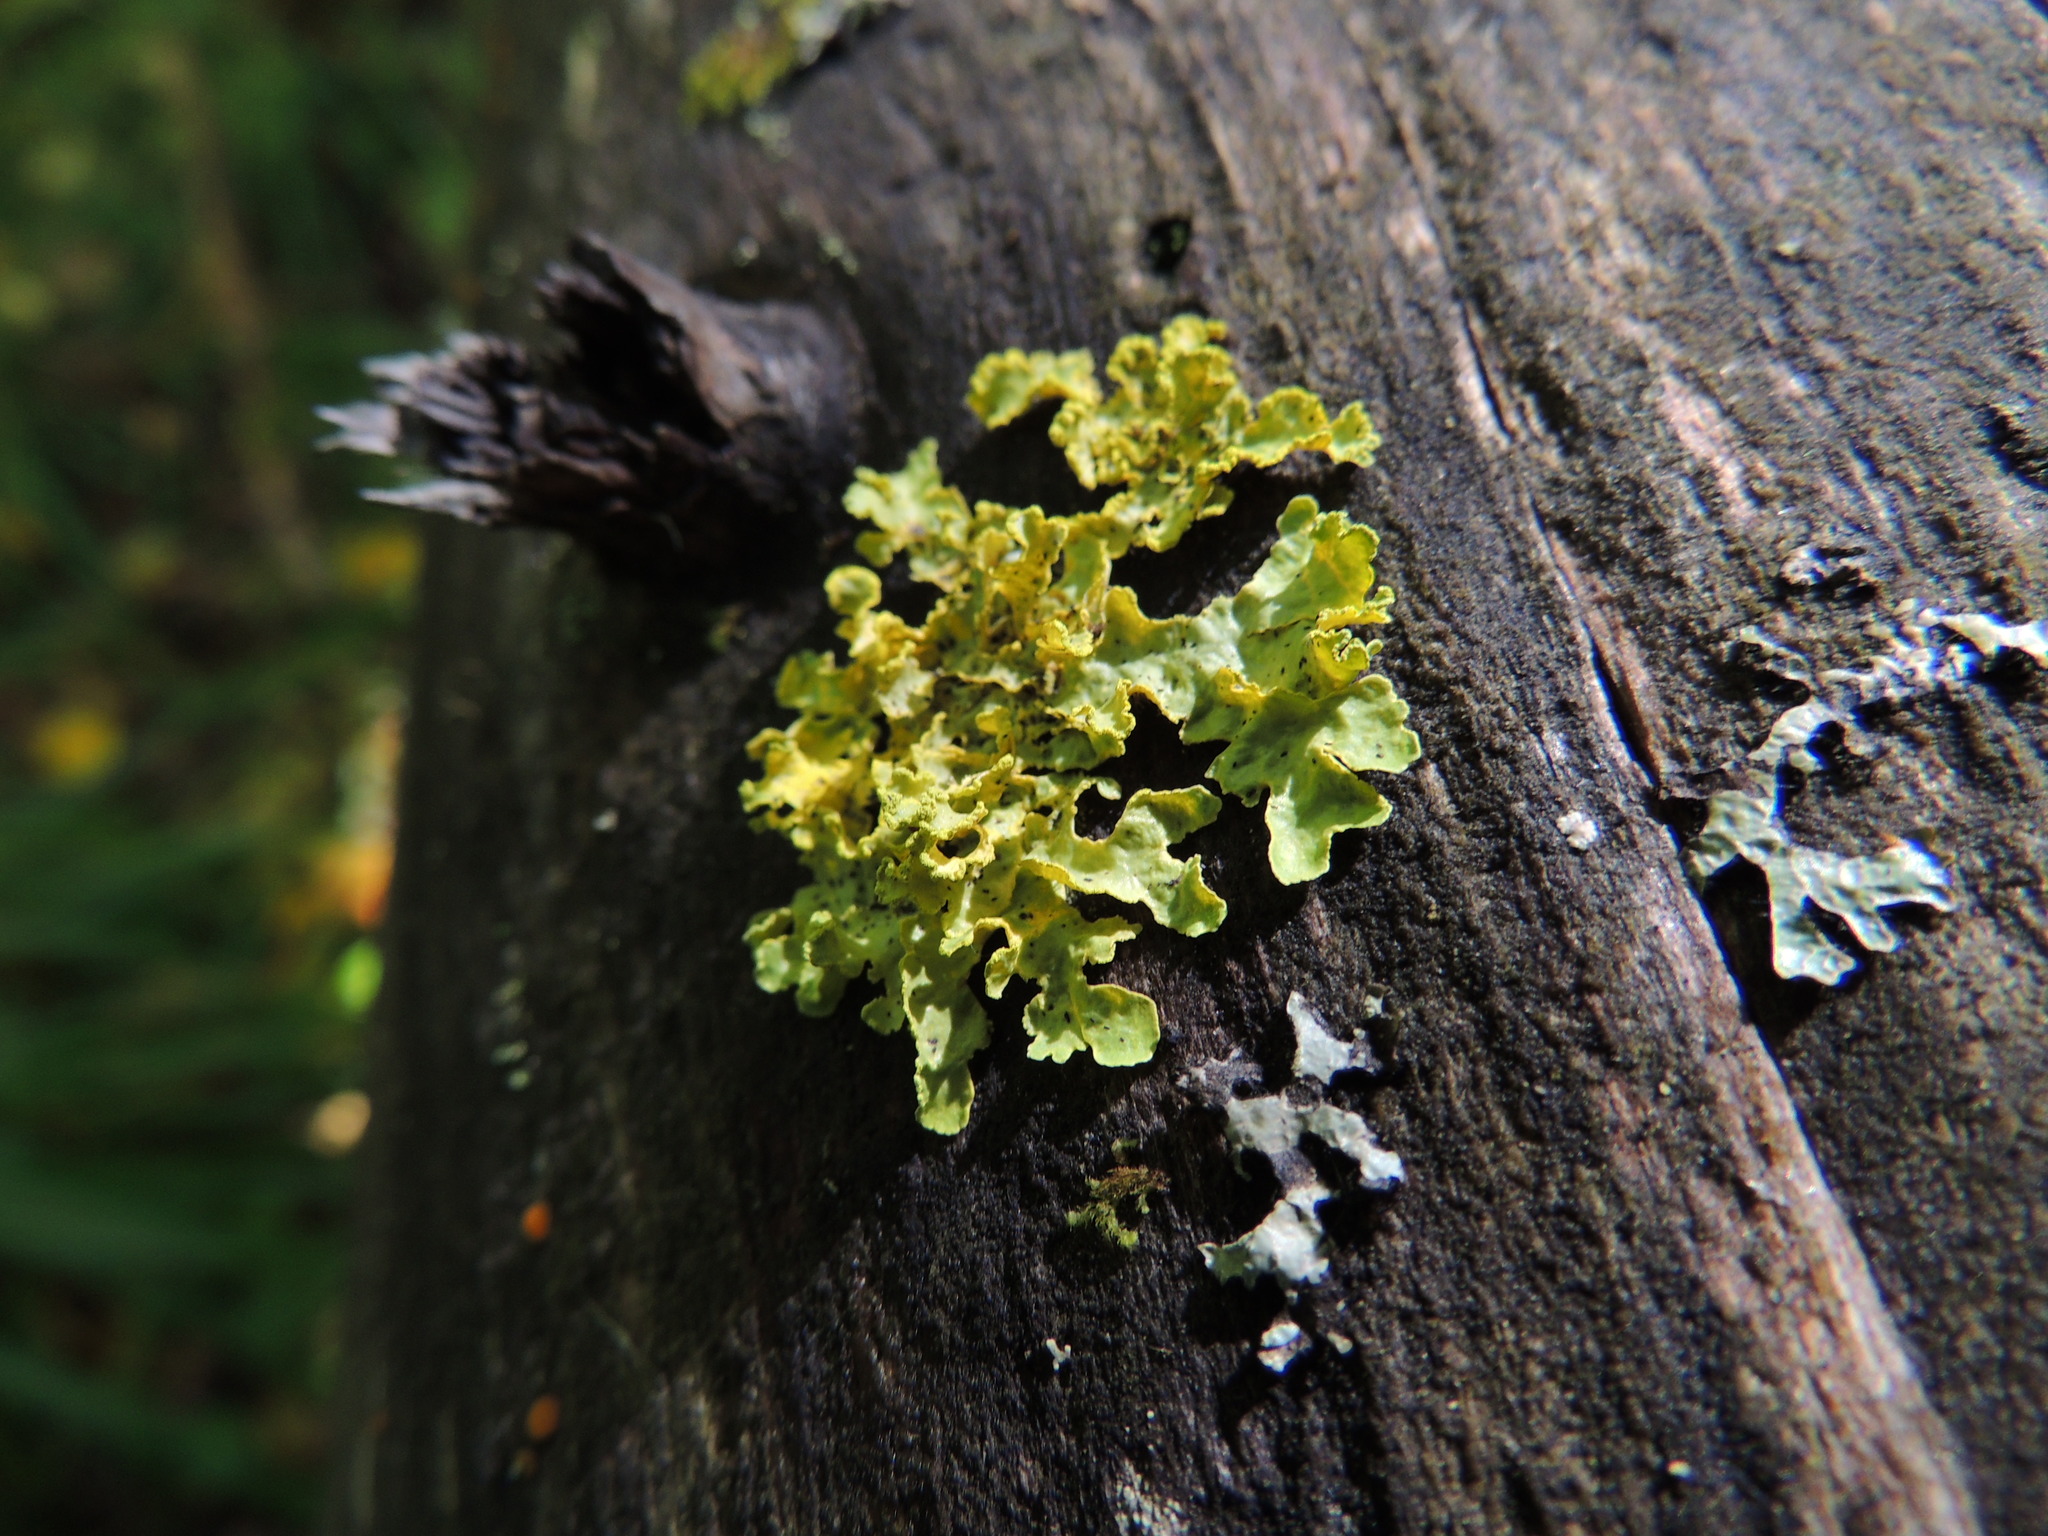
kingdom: Fungi
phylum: Ascomycota
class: Lecanoromycetes
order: Lecanorales
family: Parmeliaceae
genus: Vulpicida
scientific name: Vulpicida pinastri
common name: Powdered sunshine lichen
